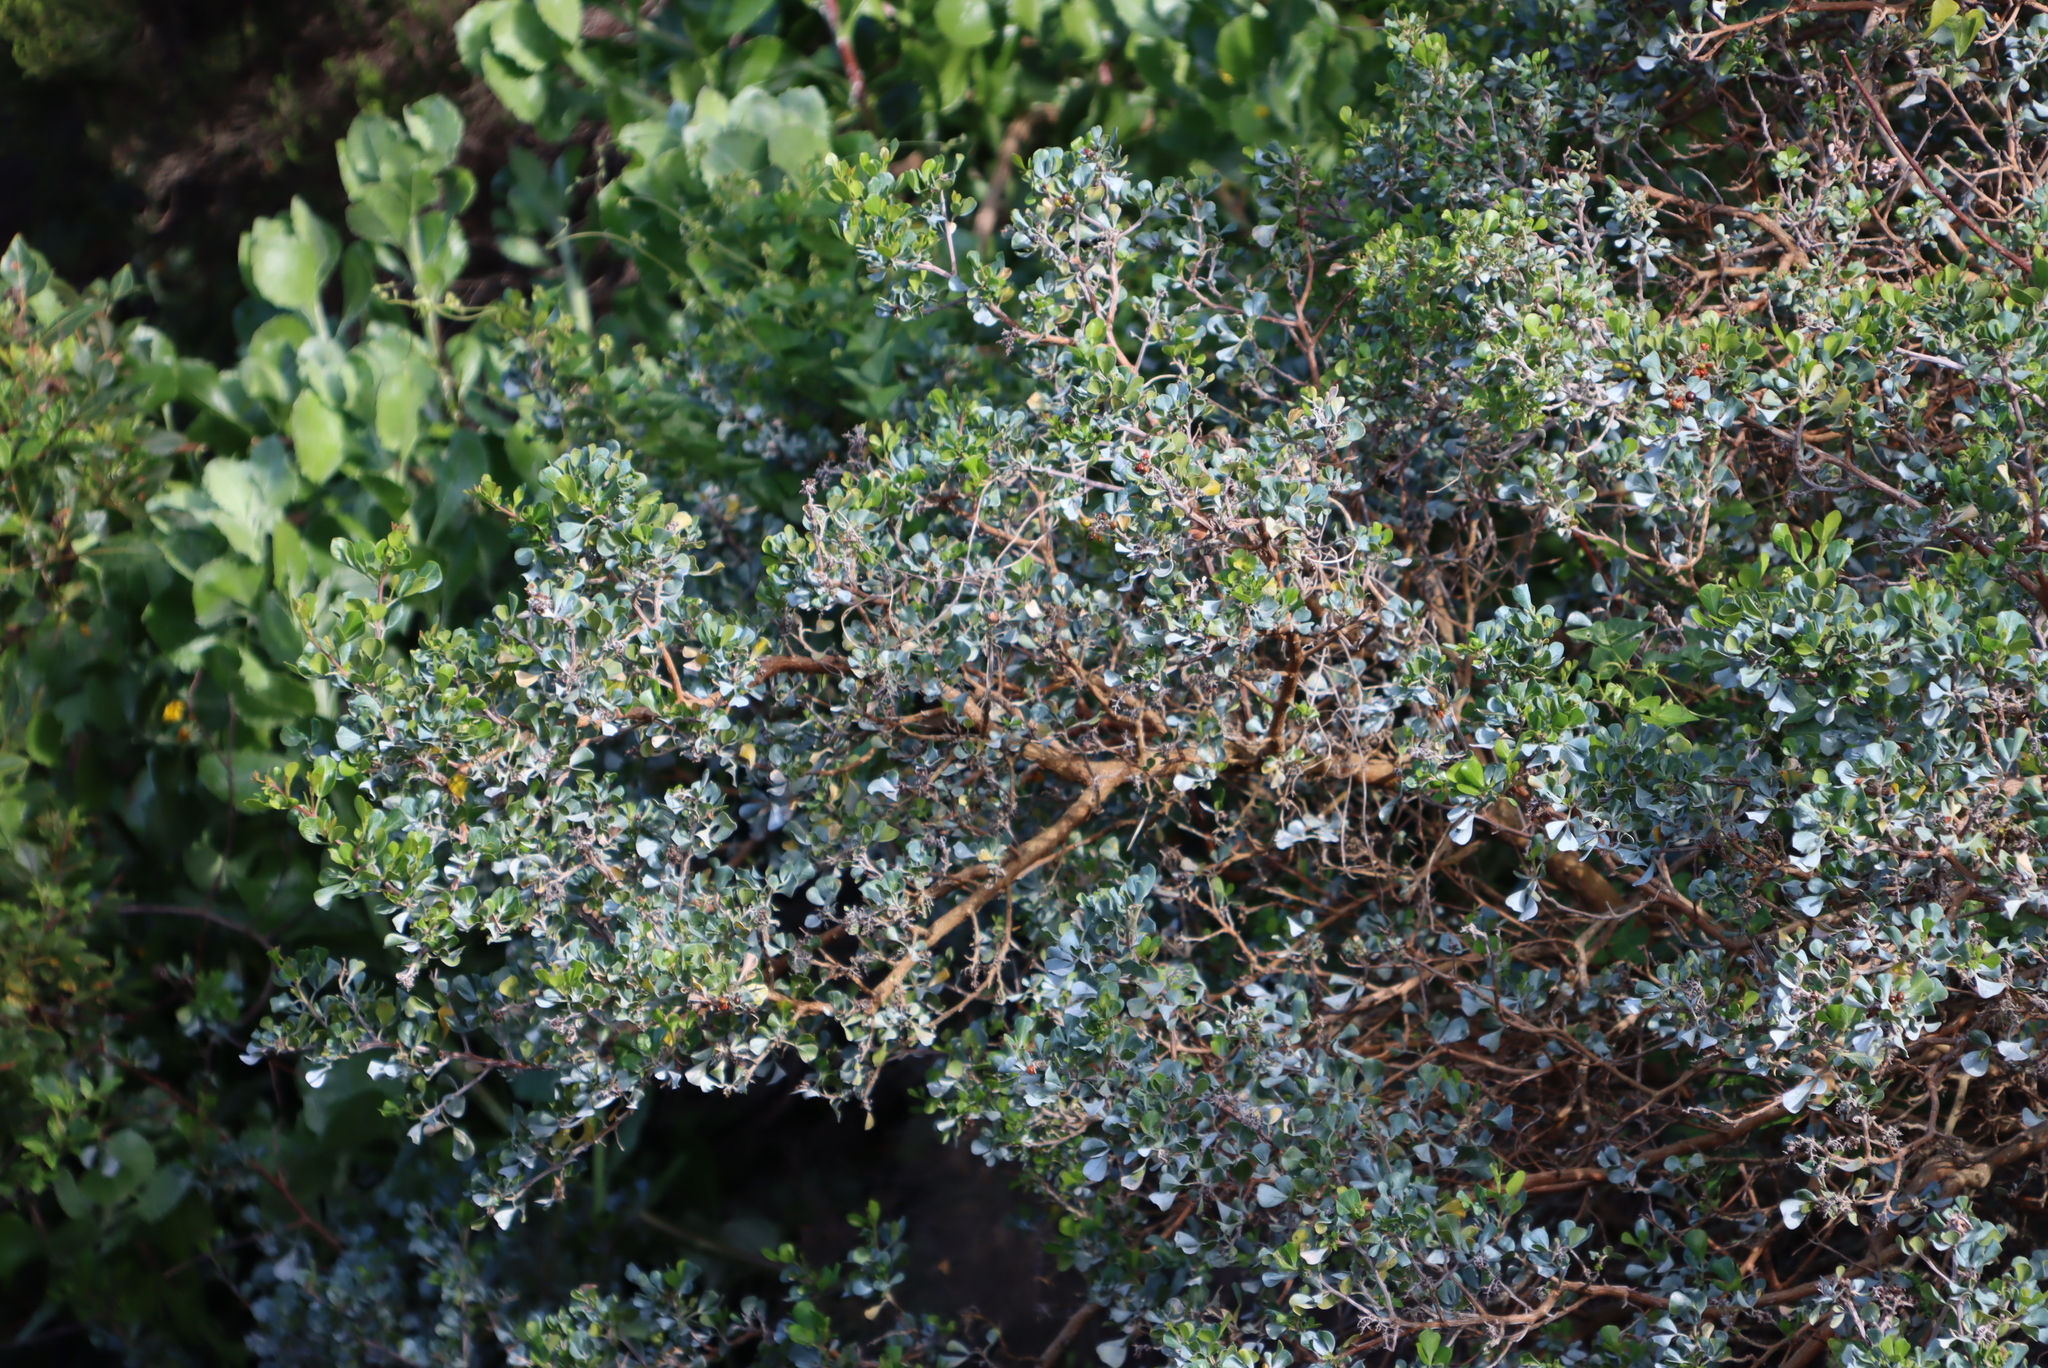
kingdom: Plantae
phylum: Tracheophyta
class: Magnoliopsida
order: Sapindales
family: Anacardiaceae
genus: Searsia
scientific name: Searsia glauca
